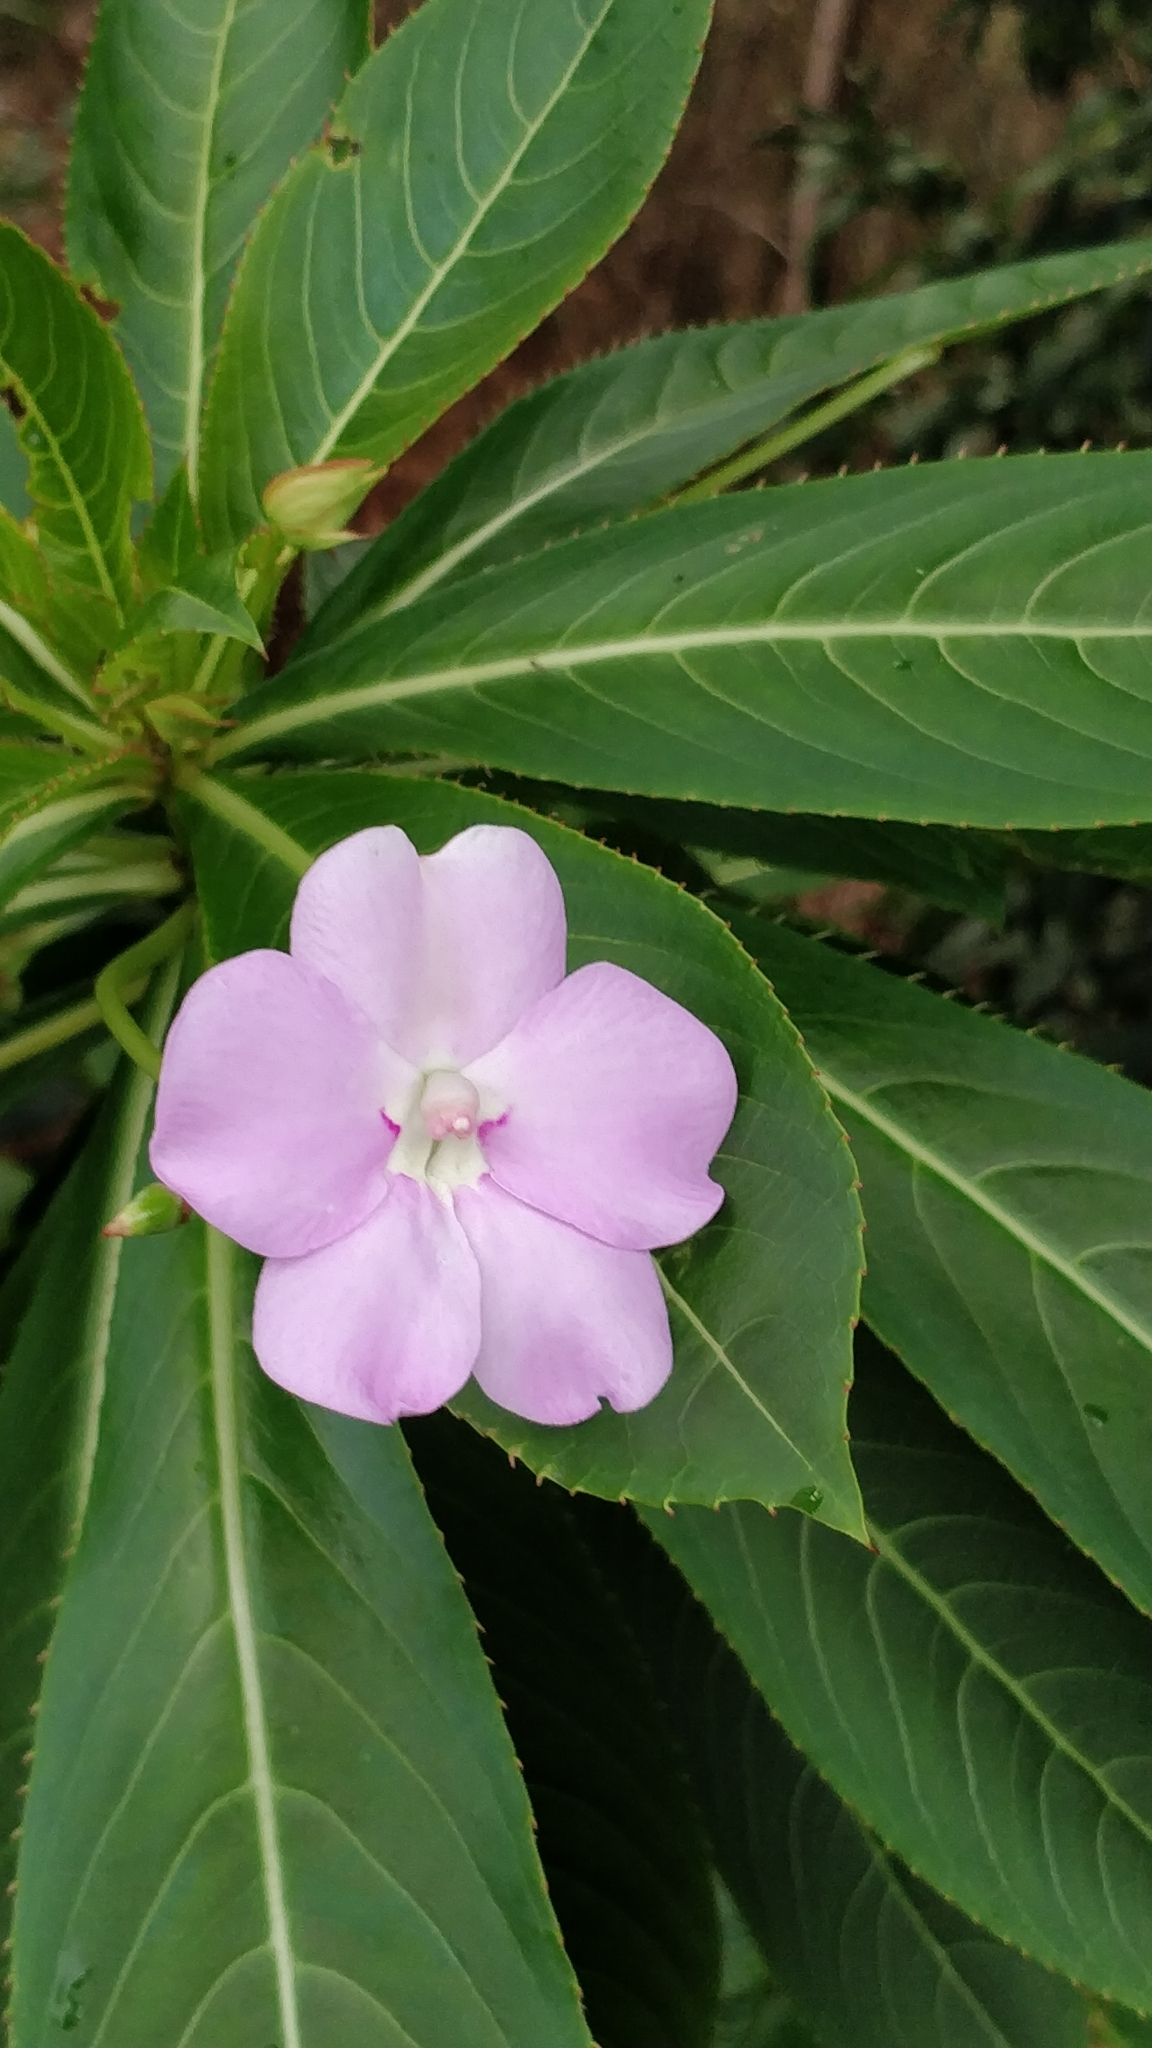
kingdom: Plantae
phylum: Tracheophyta
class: Magnoliopsida
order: Ericales
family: Balsaminaceae
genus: Impatiens
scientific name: Impatiens sodenii
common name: Oliver's touch-me-not
